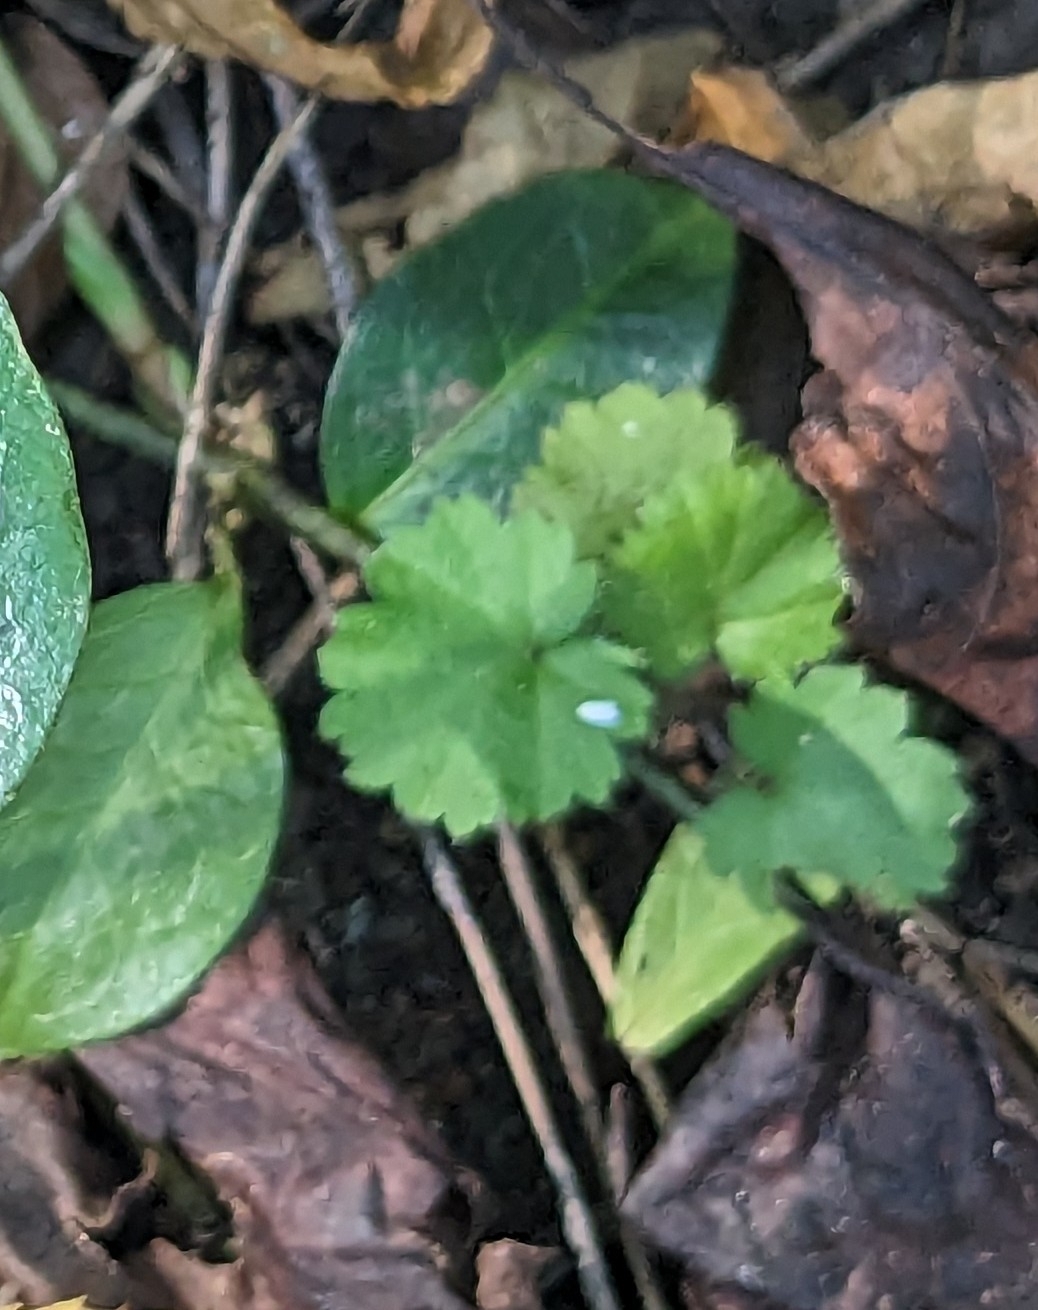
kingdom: Plantae
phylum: Tracheophyta
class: Magnoliopsida
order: Lamiales
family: Lamiaceae
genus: Glechoma
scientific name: Glechoma hederacea
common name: Ground ivy
